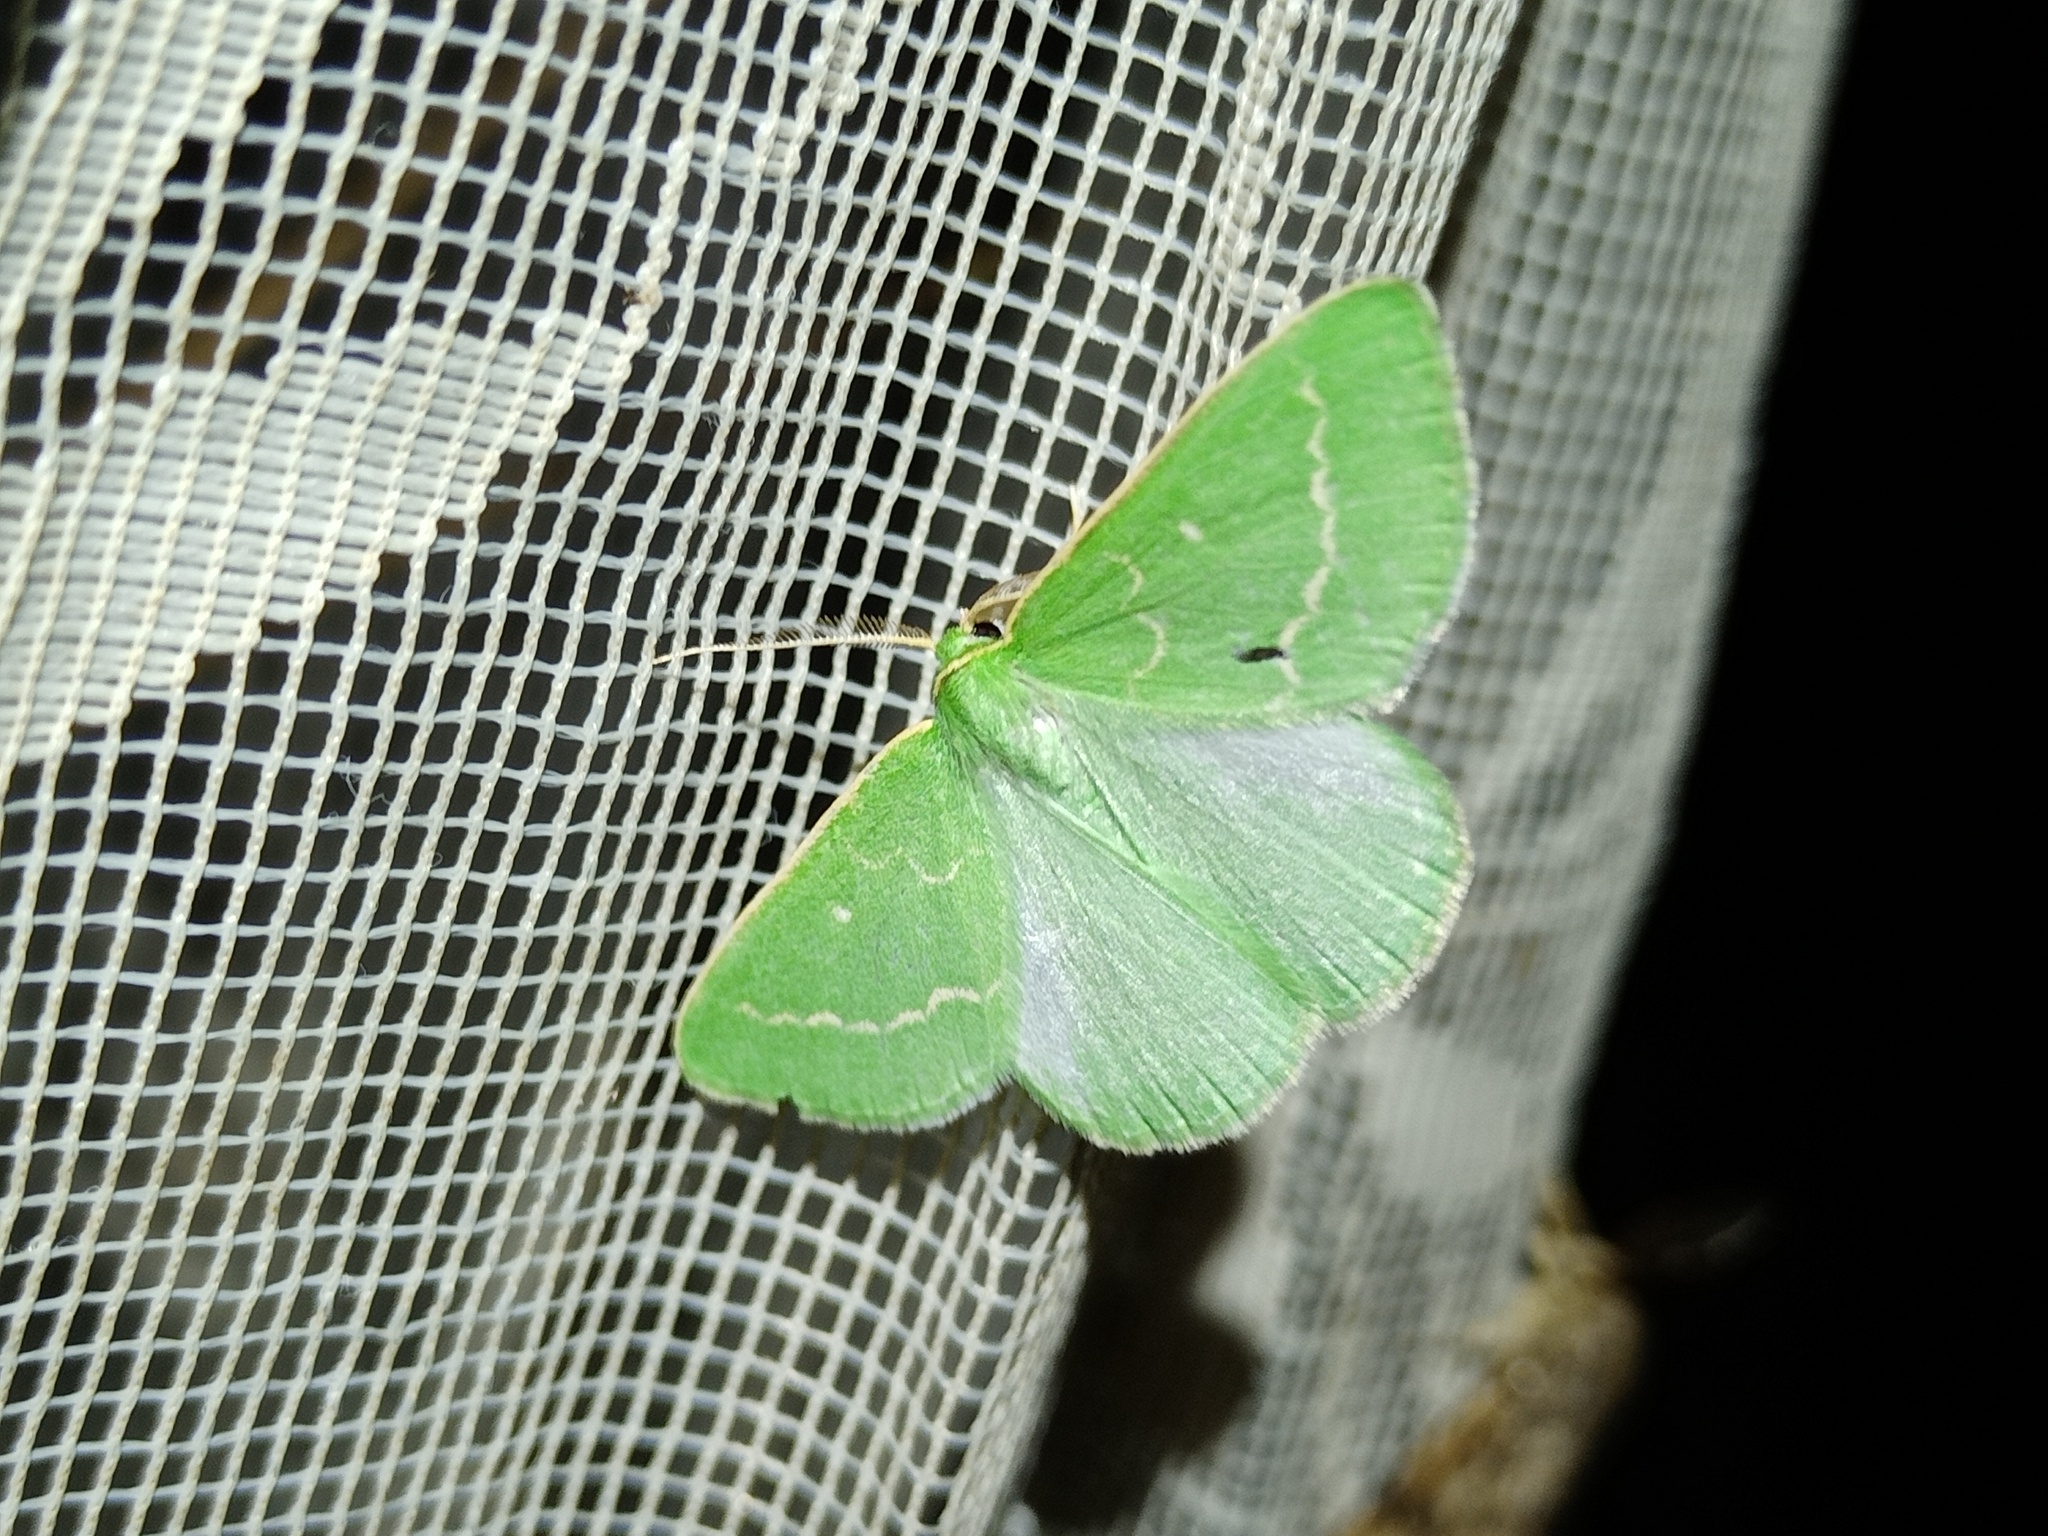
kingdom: Animalia
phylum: Arthropoda
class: Insecta
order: Lepidoptera
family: Geometridae
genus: Thetidia
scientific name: Thetidia smaragdaria
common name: Essex emerald
